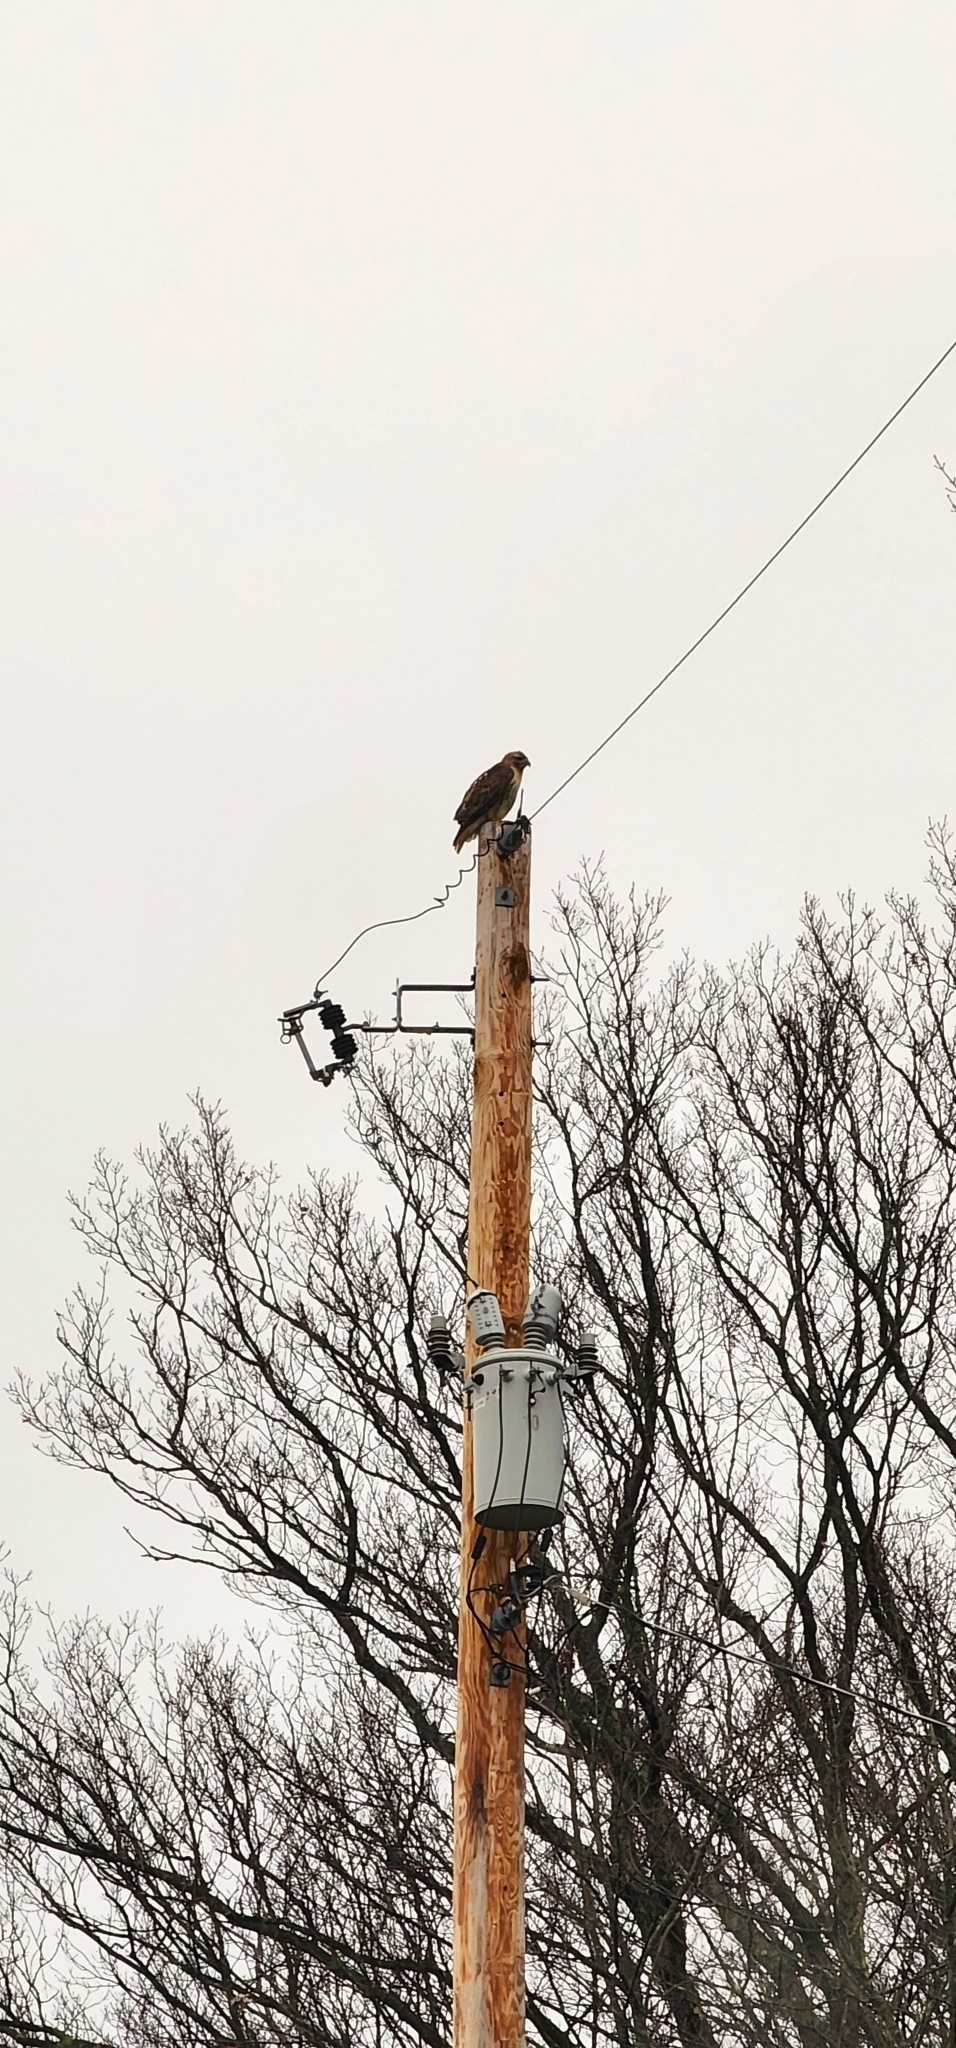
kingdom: Animalia
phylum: Chordata
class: Aves
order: Accipitriformes
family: Accipitridae
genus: Buteo
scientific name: Buteo jamaicensis
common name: Red-tailed hawk
